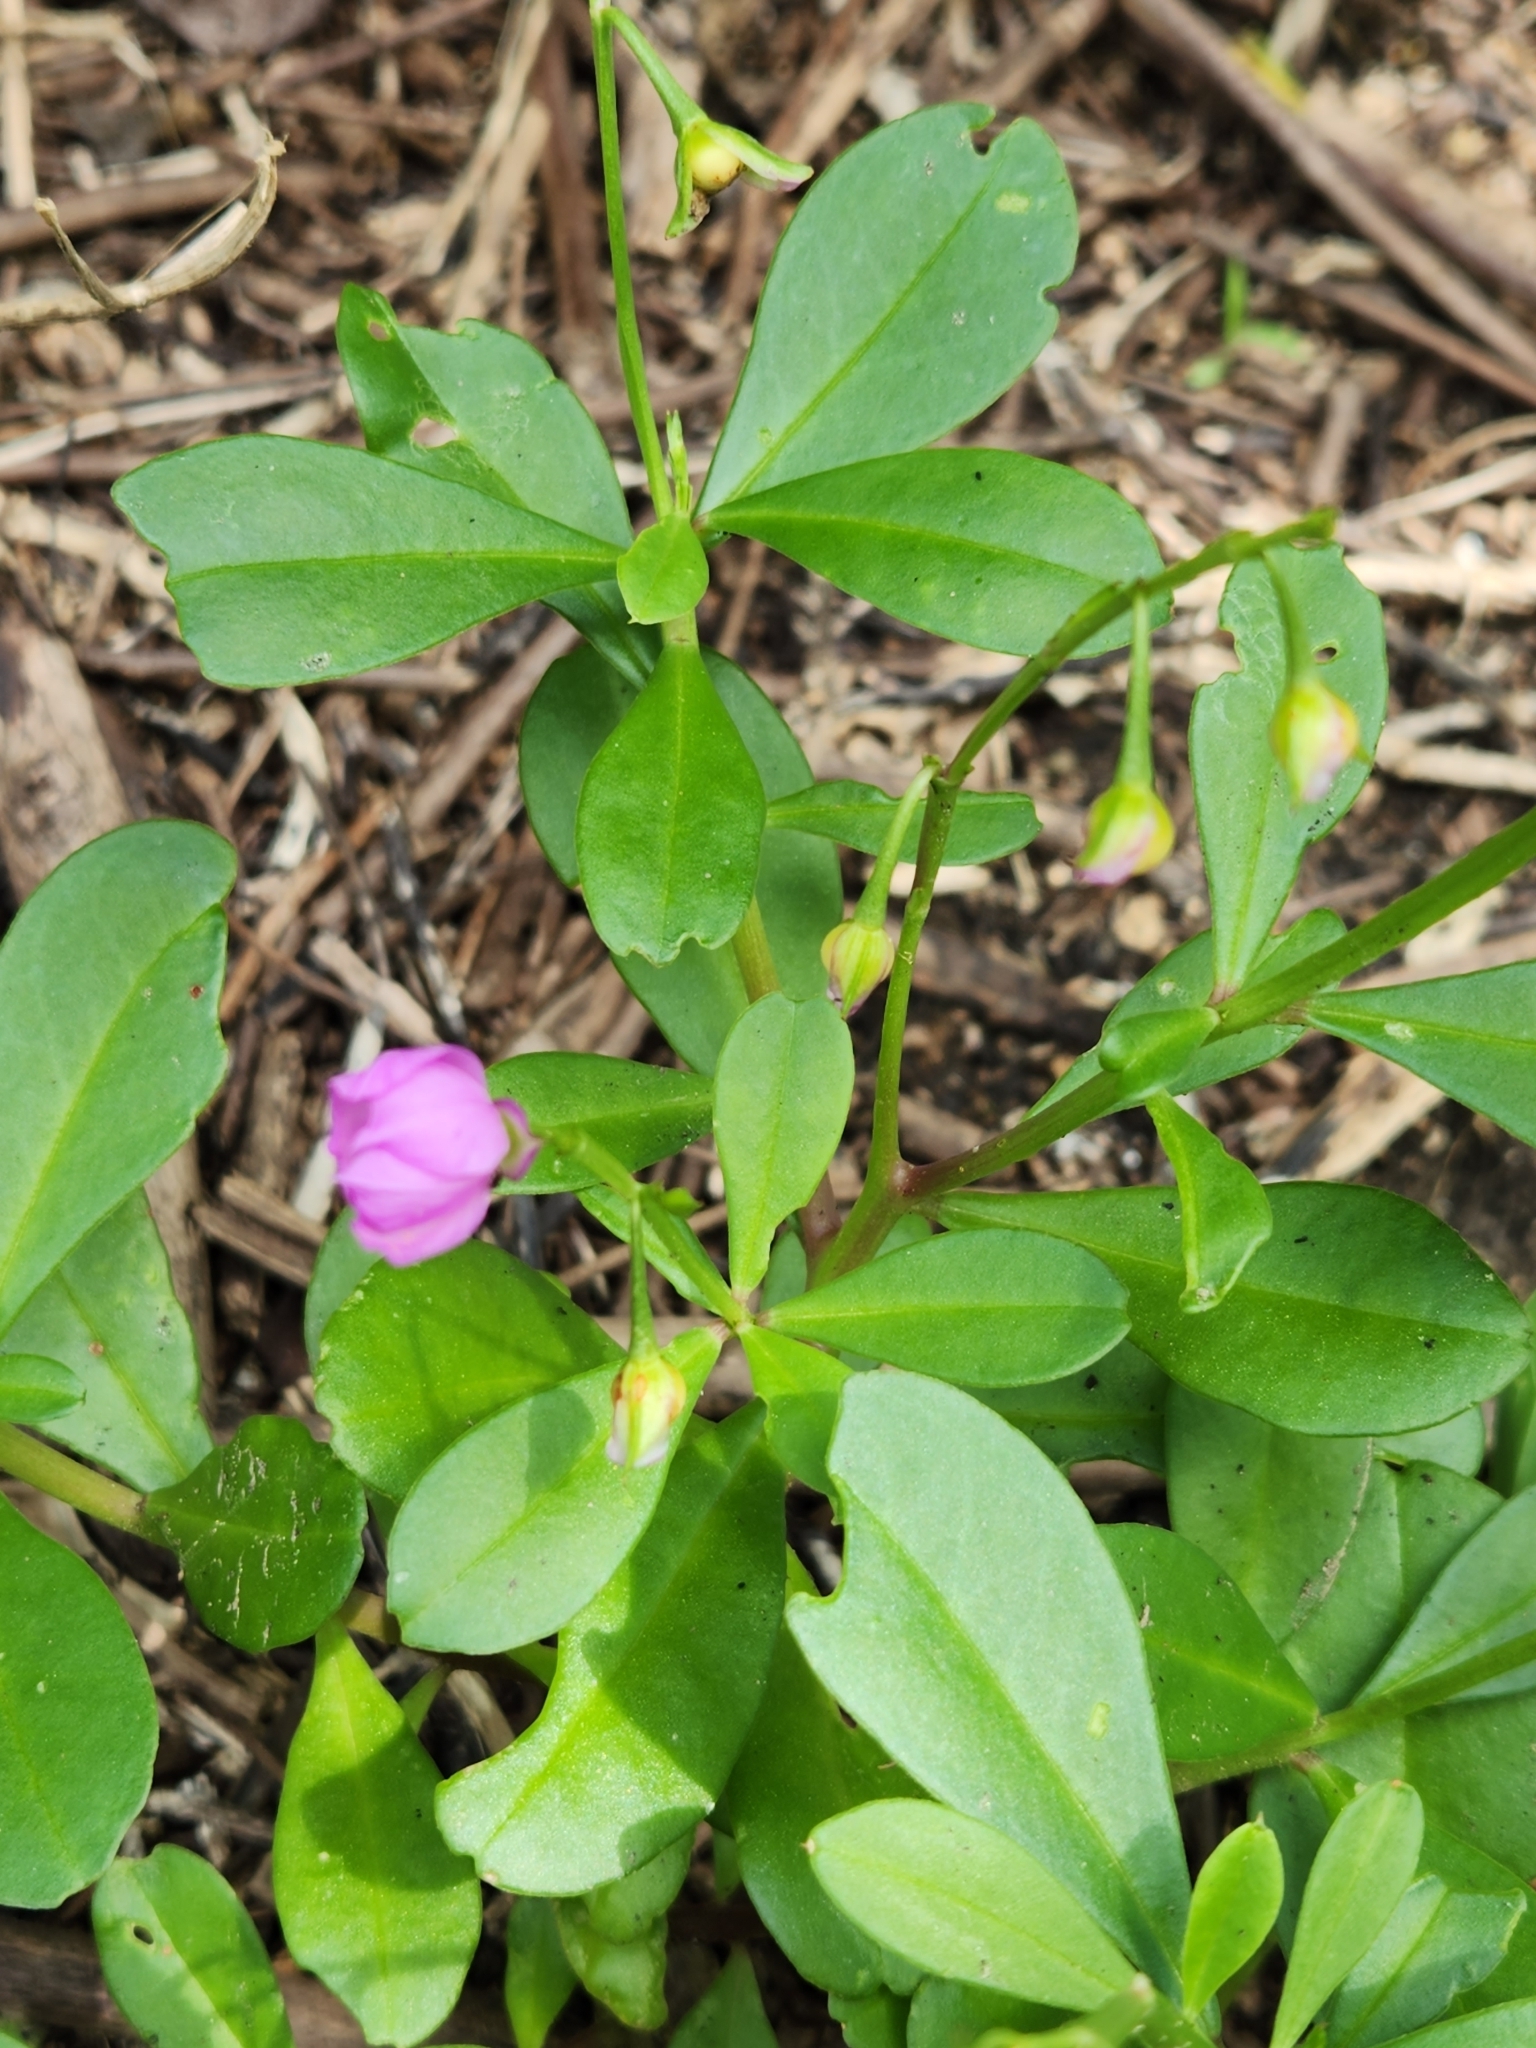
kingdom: Plantae
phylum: Tracheophyta
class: Magnoliopsida
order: Caryophyllales
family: Talinaceae
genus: Talinum
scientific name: Talinum fruticosum
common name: Verdolaga-francesa
